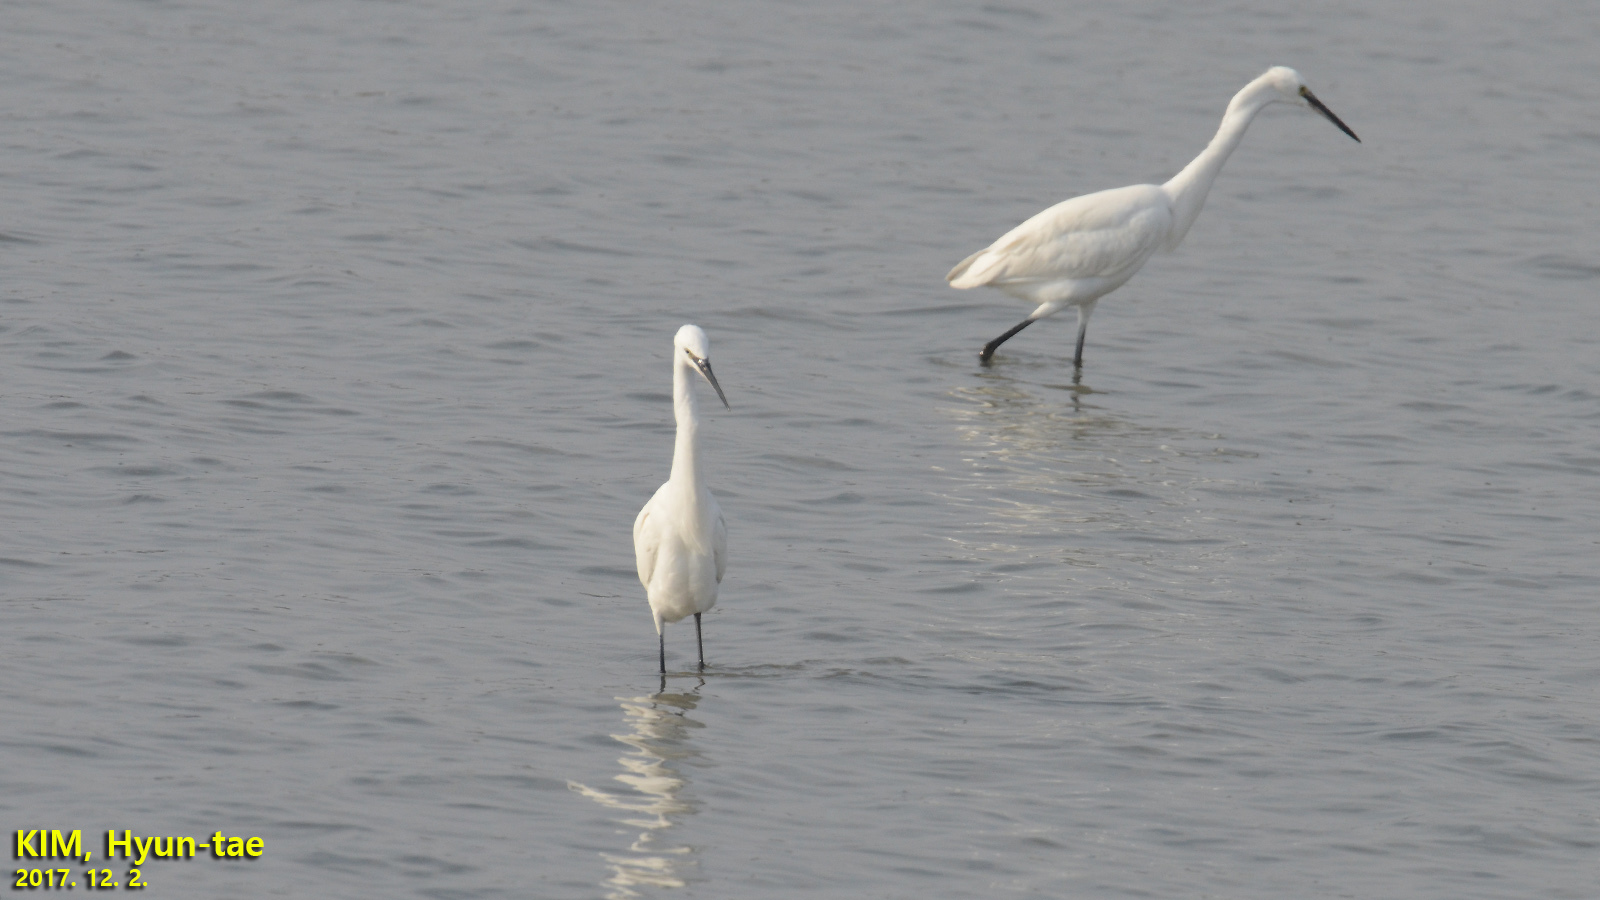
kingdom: Animalia
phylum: Chordata
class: Aves
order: Pelecaniformes
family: Ardeidae
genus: Egretta
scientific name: Egretta garzetta
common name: Little egret
